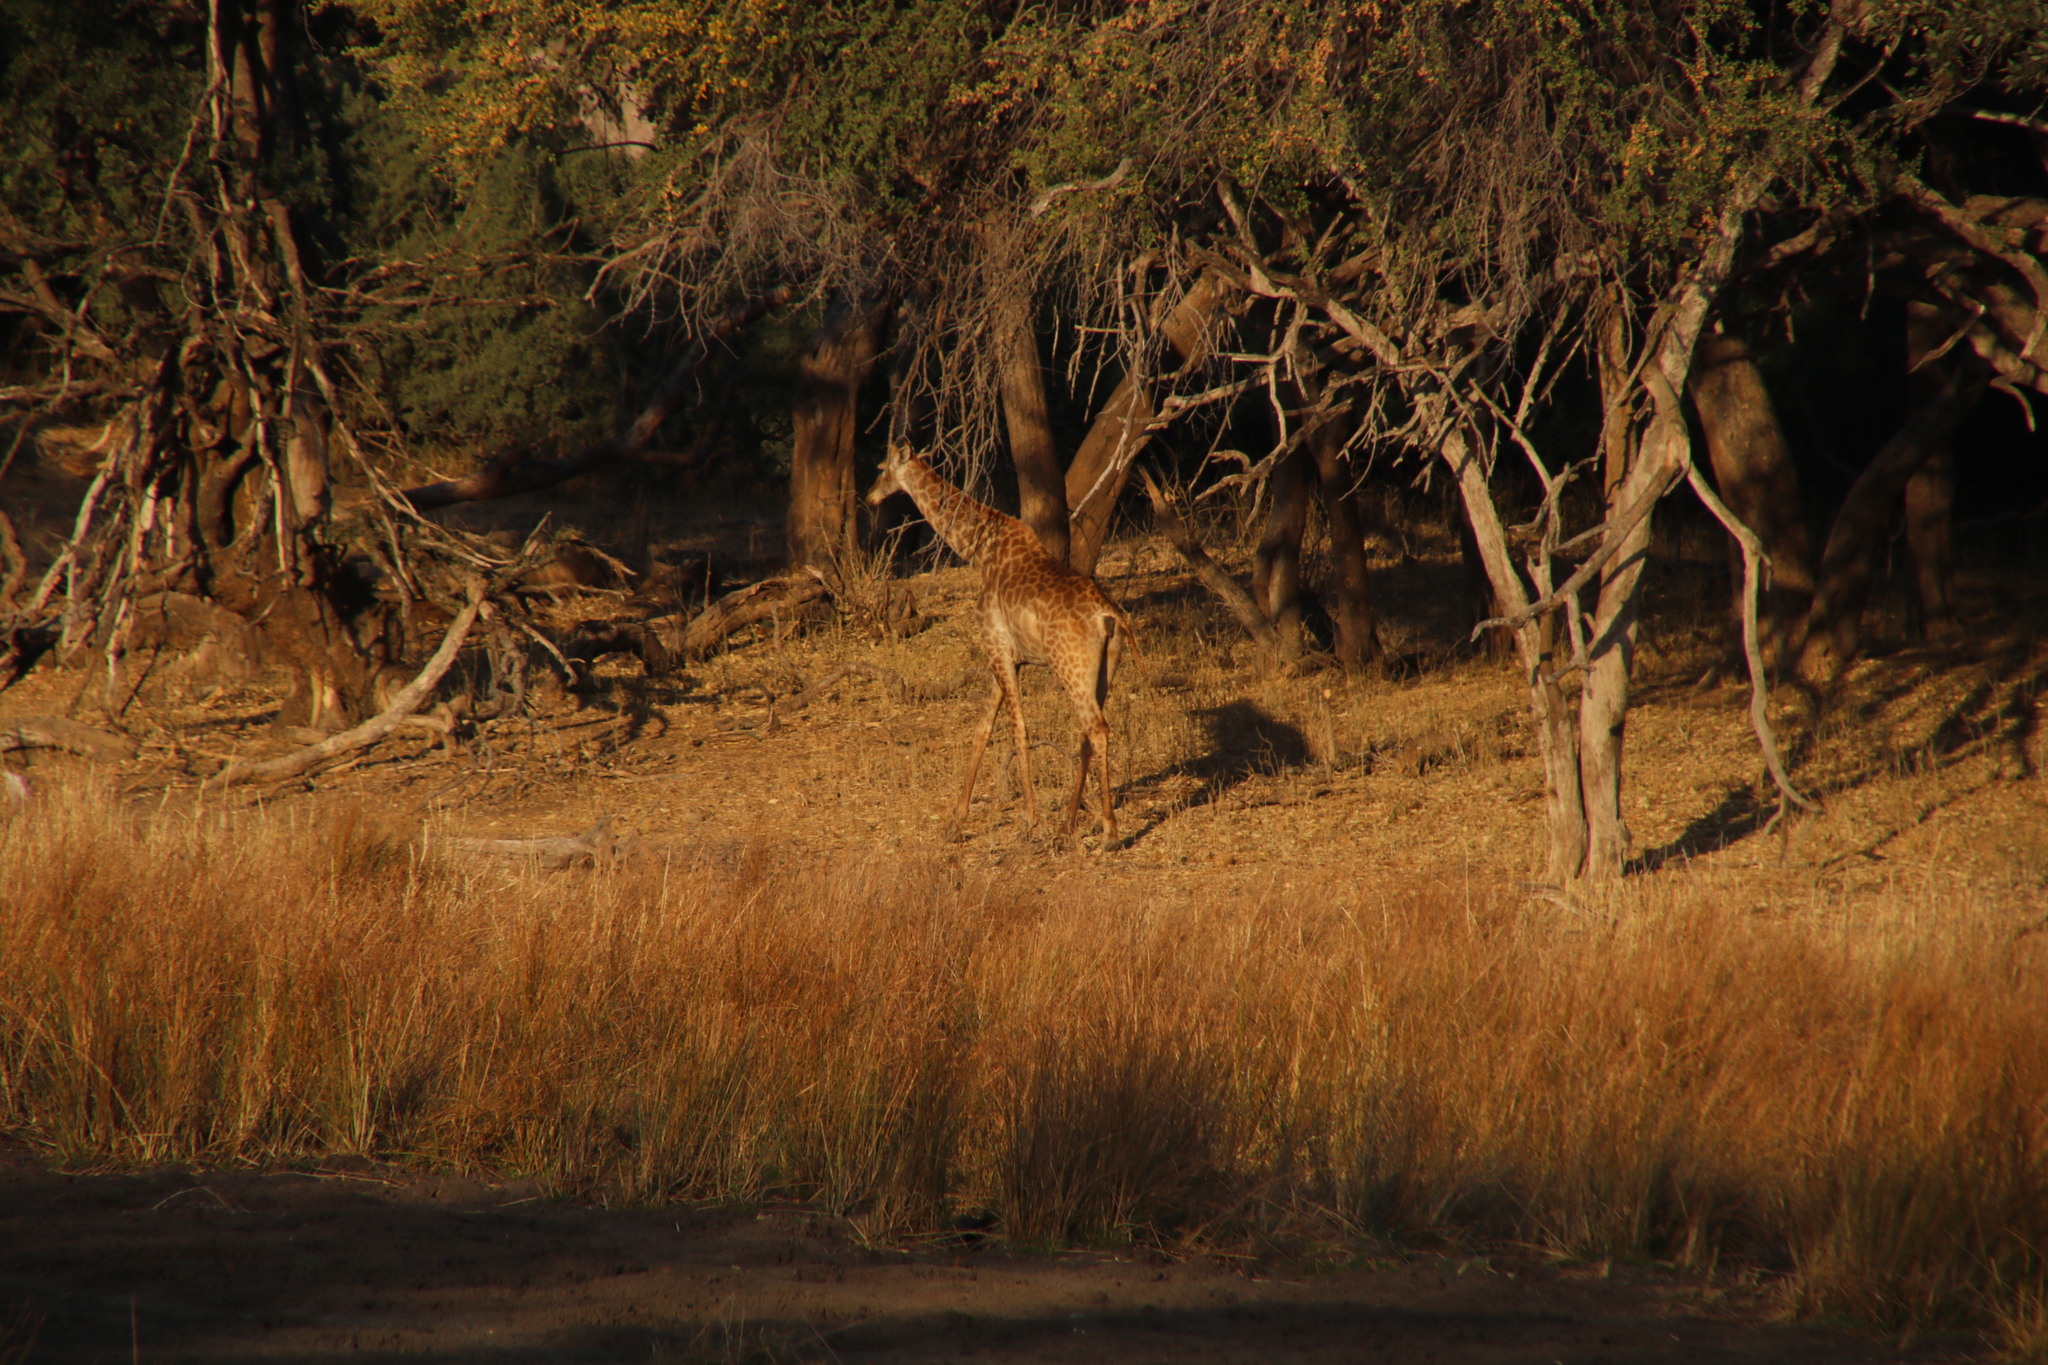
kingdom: Animalia
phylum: Chordata
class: Mammalia
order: Artiodactyla
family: Giraffidae
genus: Giraffa
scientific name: Giraffa giraffa
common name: Southern giraffe
